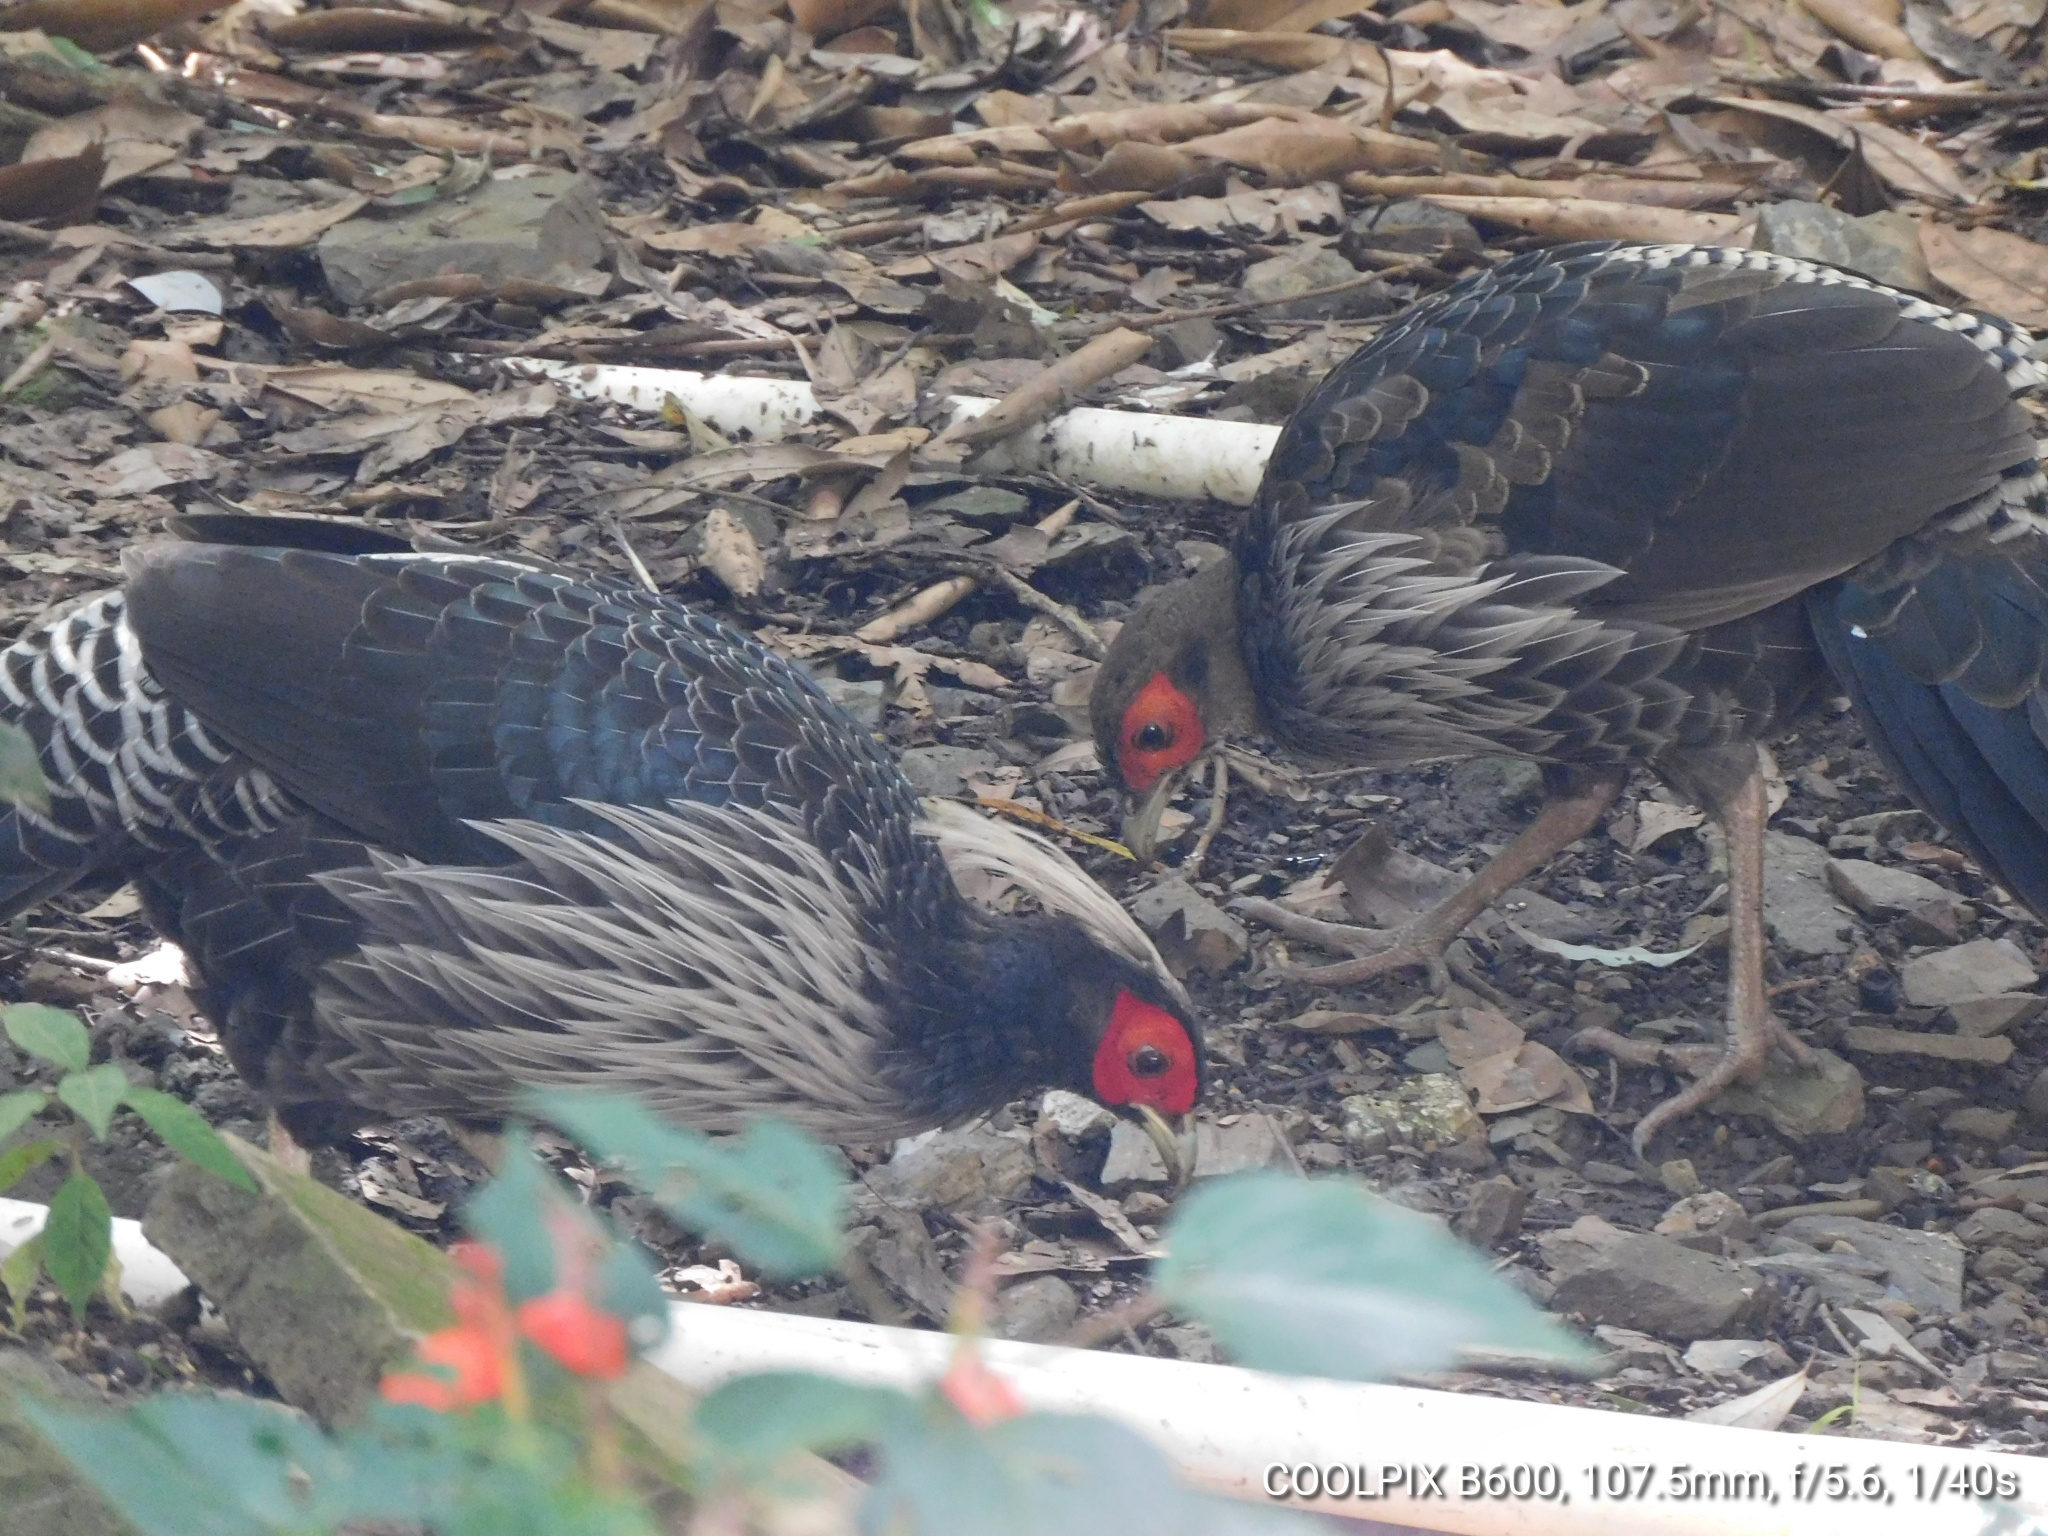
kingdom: Animalia
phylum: Chordata
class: Aves
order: Galliformes
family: Phasianidae
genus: Lophura
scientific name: Lophura leucomelanos
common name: Kalij pheasant
